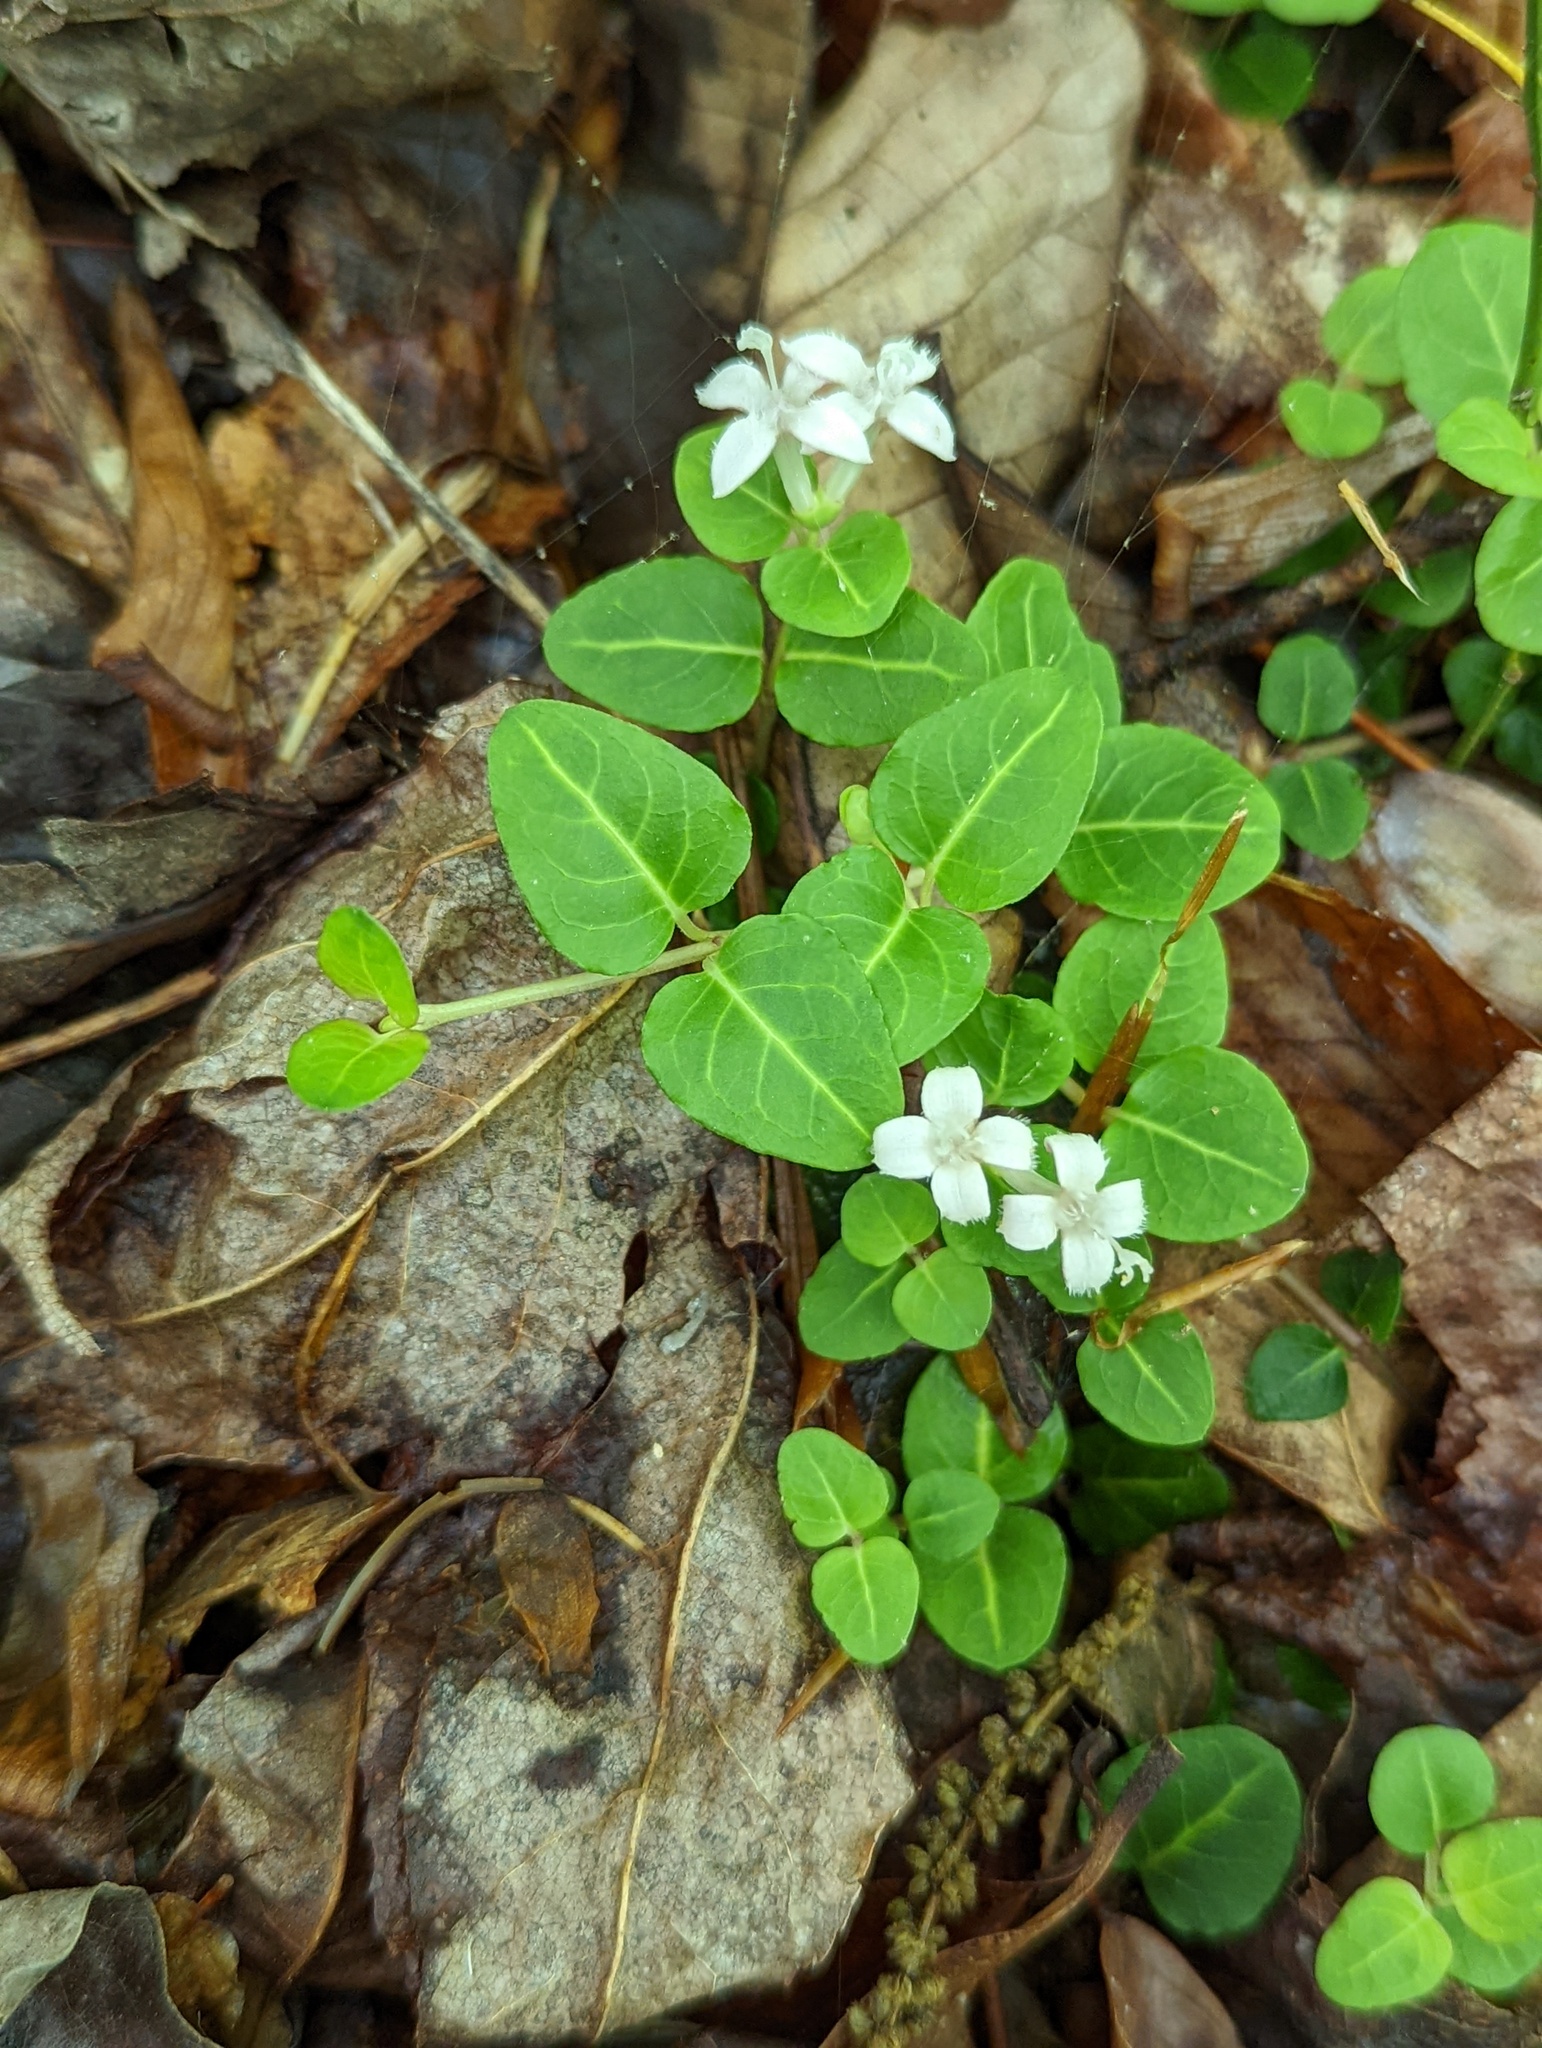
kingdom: Plantae
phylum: Tracheophyta
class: Magnoliopsida
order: Gentianales
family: Rubiaceae
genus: Mitchella
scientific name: Mitchella repens
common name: Partridge-berry
